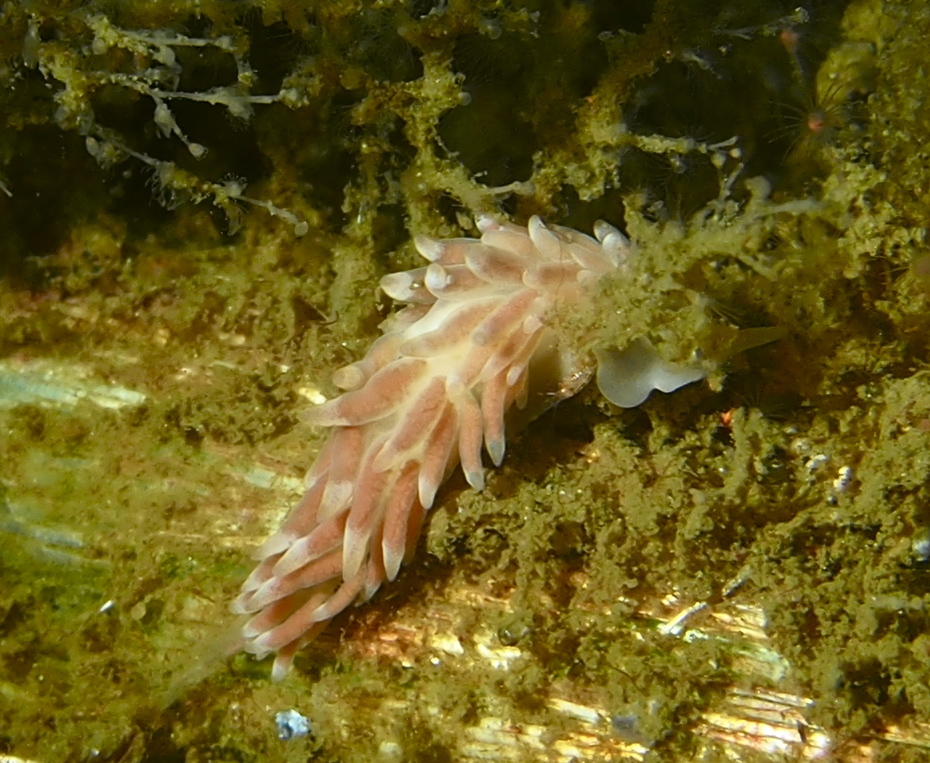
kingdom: Animalia
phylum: Mollusca
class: Gastropoda
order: Nudibranchia
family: Trinchesiidae
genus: Catriona
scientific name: Catriona aurantia
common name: Corange-tip cuthona
